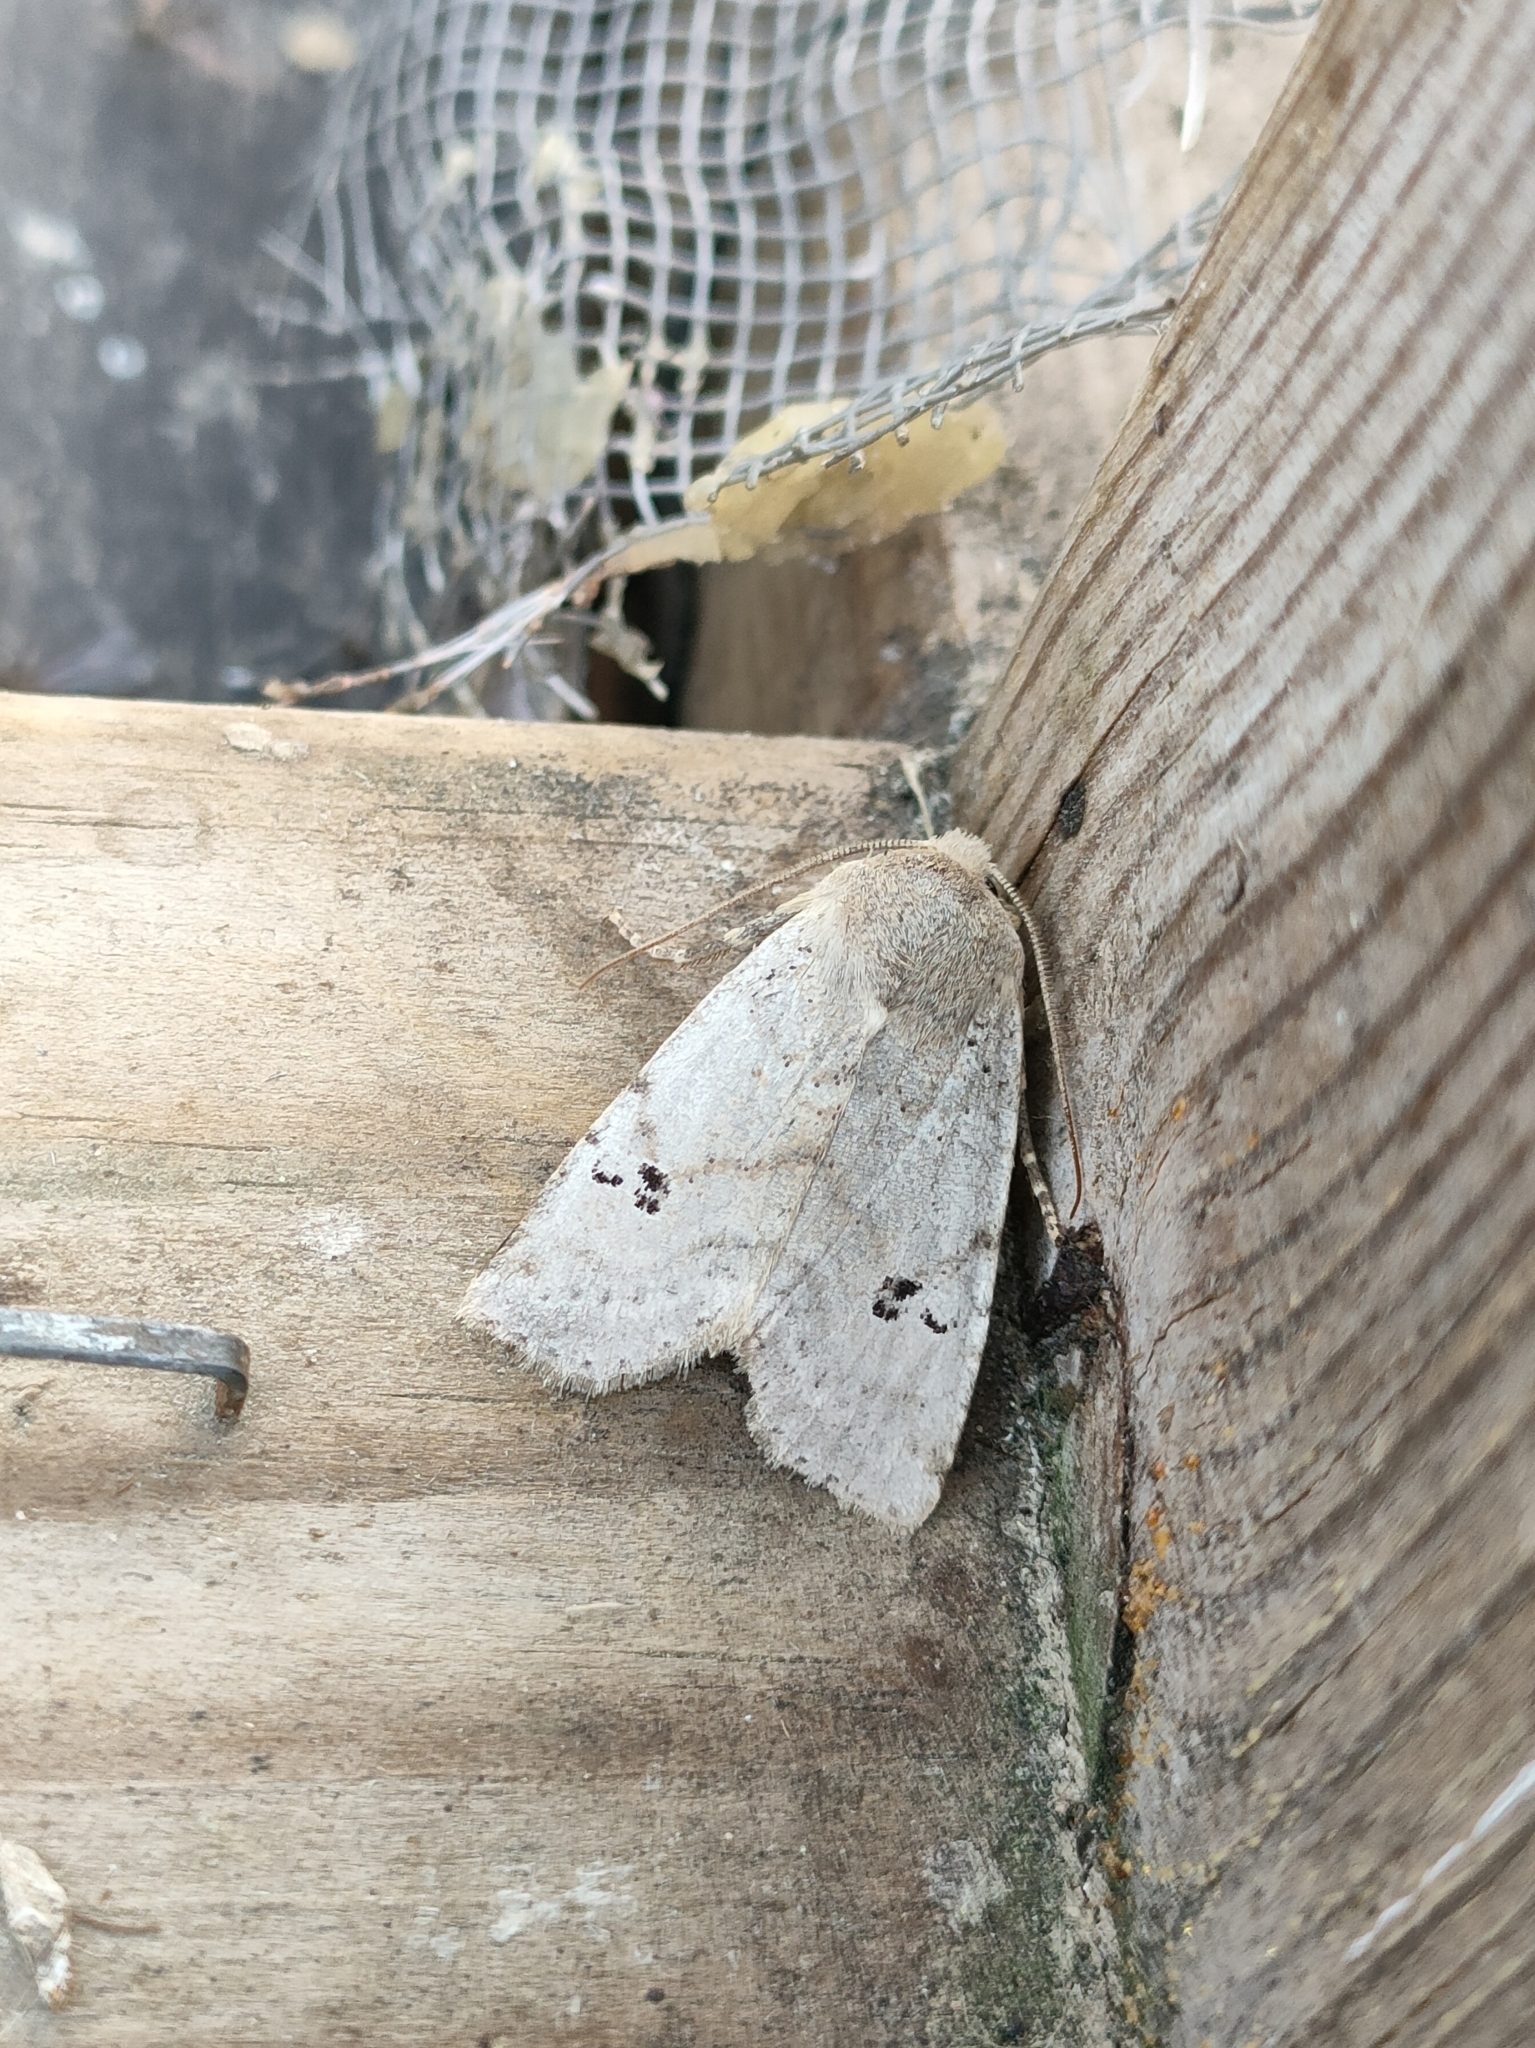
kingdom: Animalia
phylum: Arthropoda
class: Insecta
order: Lepidoptera
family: Noctuidae
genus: Conistra
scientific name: Conistra daubei
